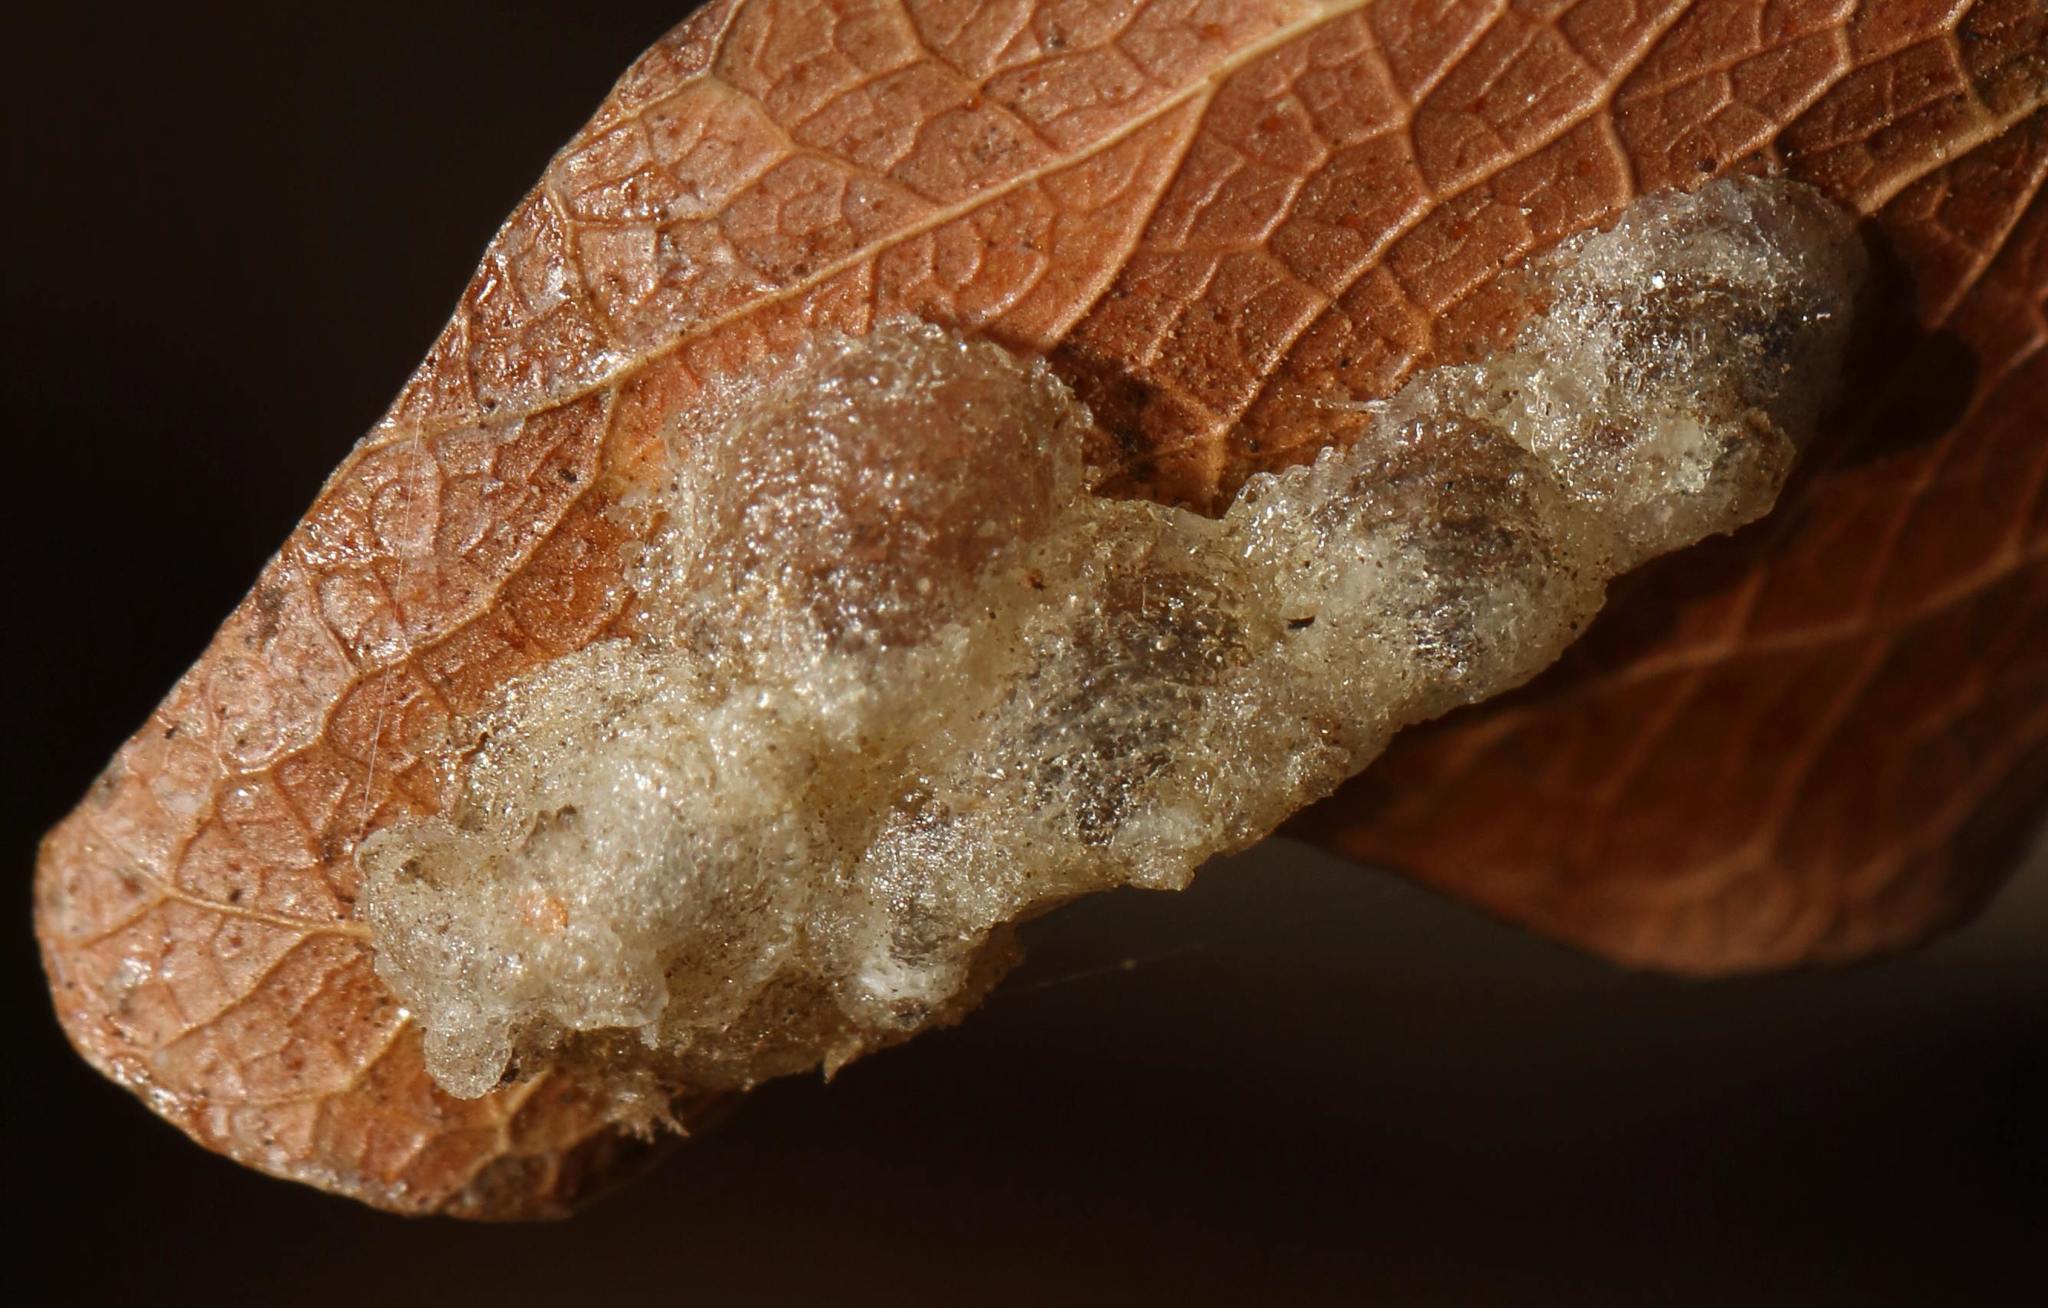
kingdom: Animalia
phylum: Arthropoda
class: Insecta
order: Hemiptera
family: Psyllidae
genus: Retroacizzia
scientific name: Retroacizzia mopani
